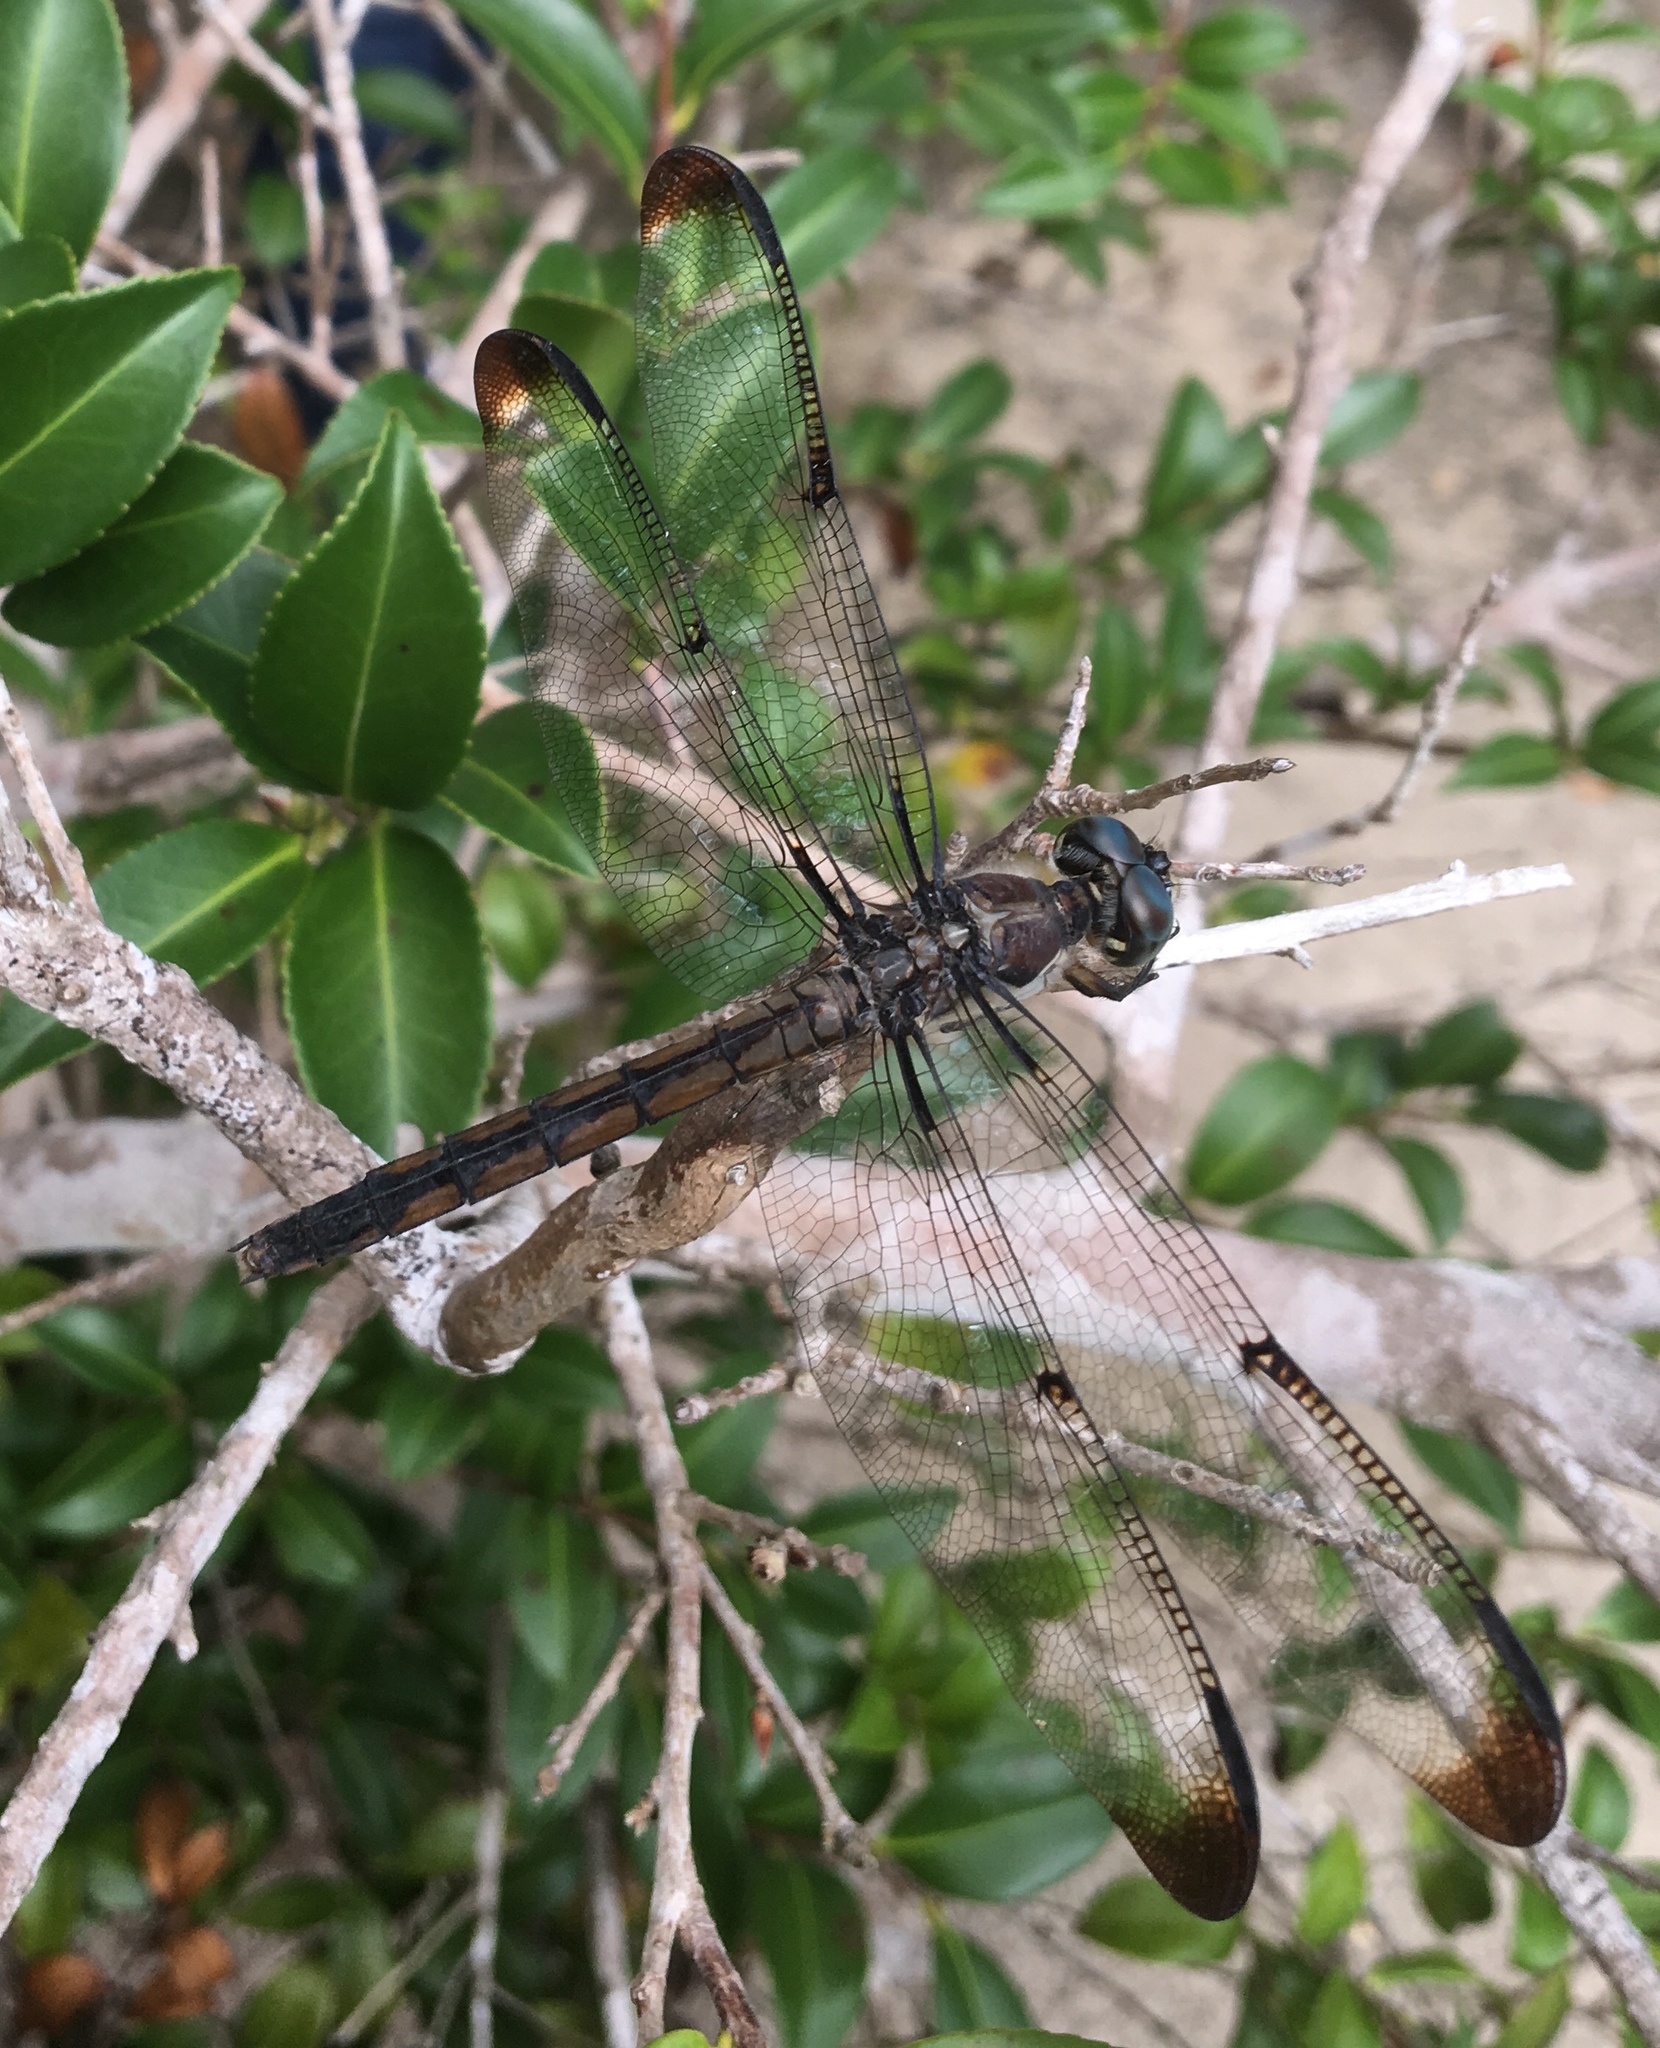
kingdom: Animalia
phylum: Arthropoda
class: Insecta
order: Odonata
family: Libellulidae
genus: Libellula
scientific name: Libellula vibrans
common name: Great blue skimmer
